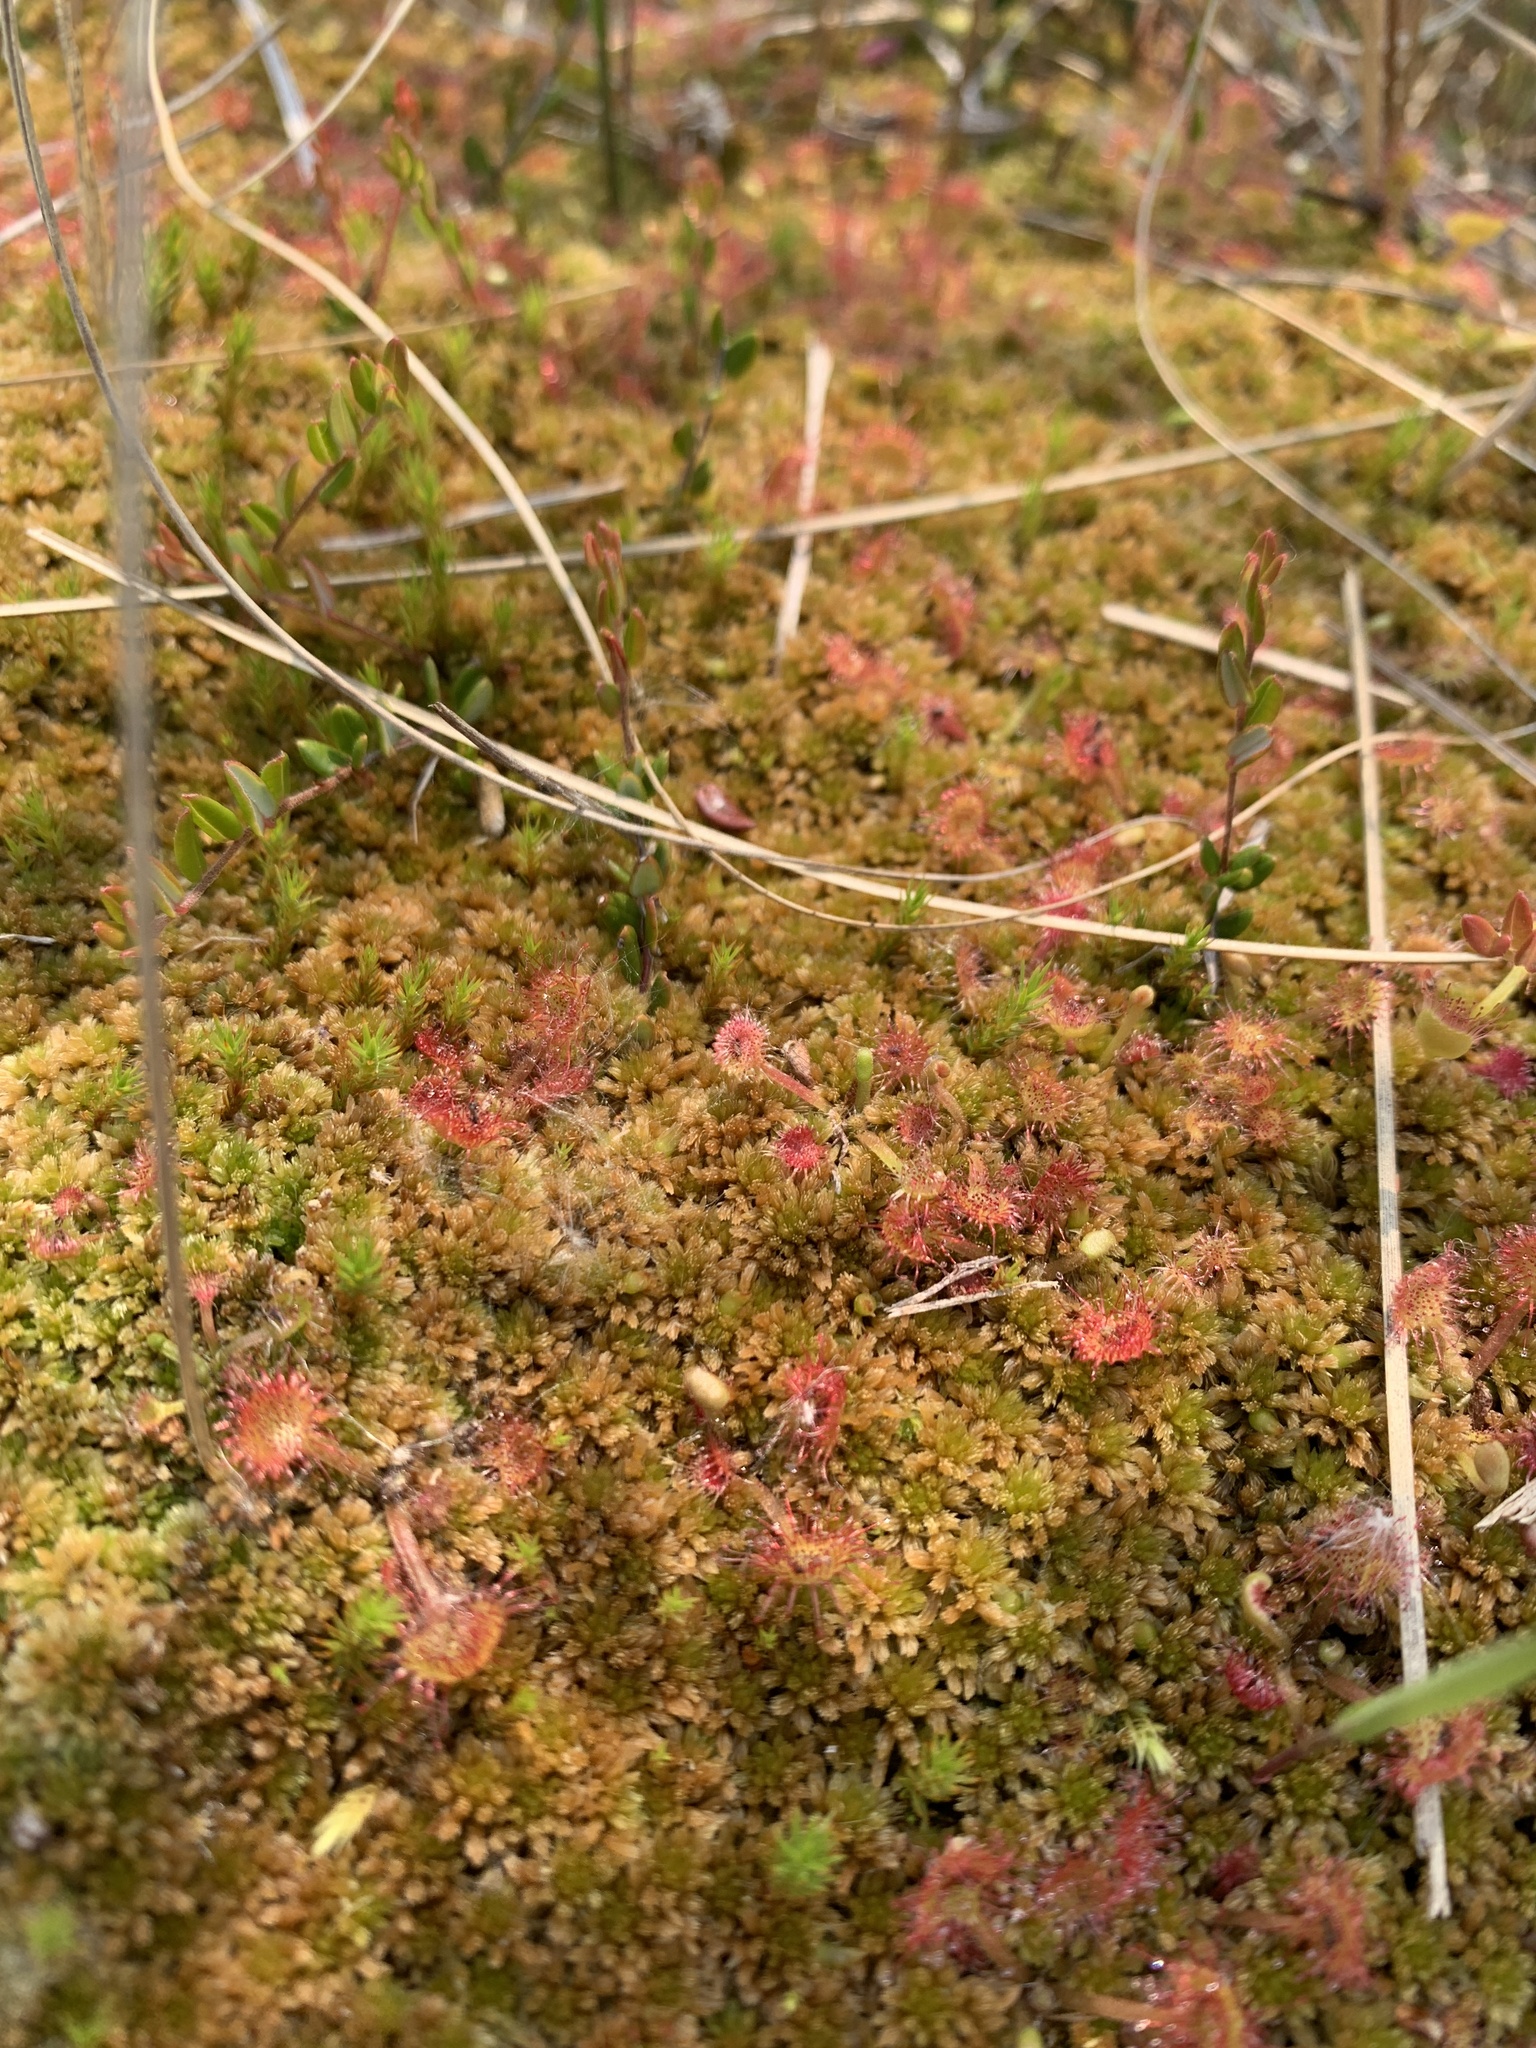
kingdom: Plantae
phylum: Tracheophyta
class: Magnoliopsida
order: Caryophyllales
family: Droseraceae
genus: Drosera
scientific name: Drosera rotundifolia
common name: Round-leaved sundew
